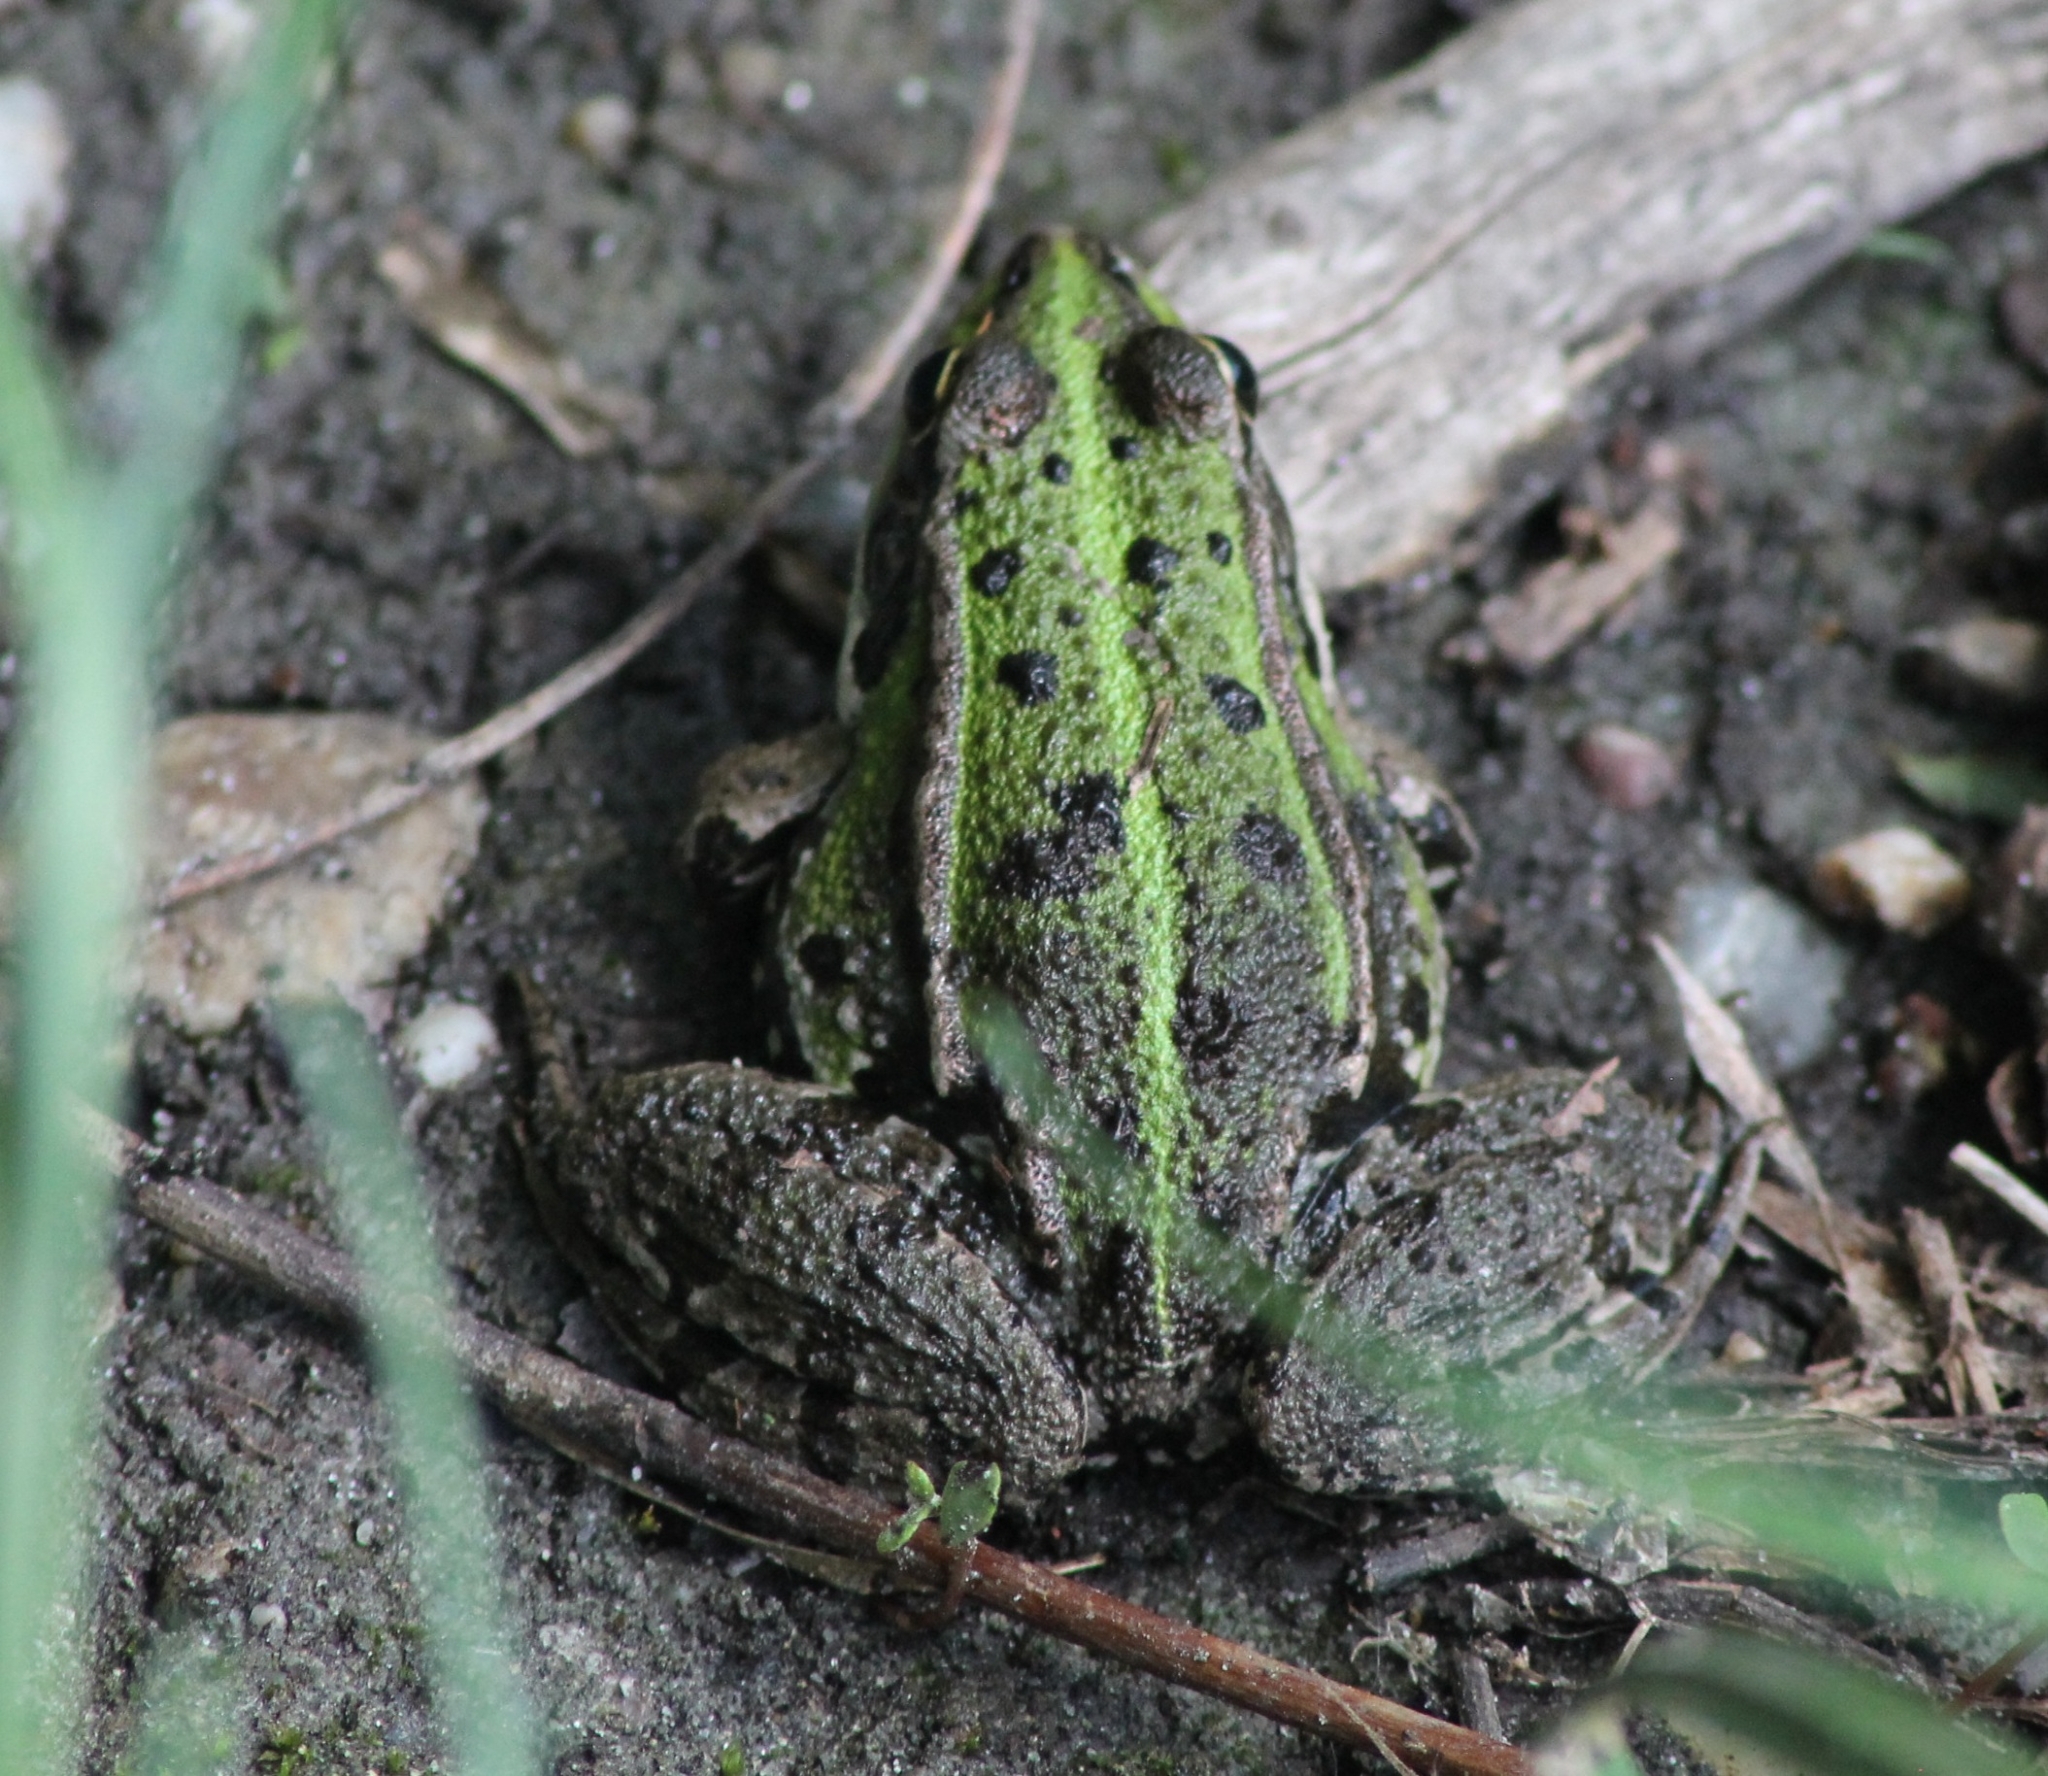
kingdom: Animalia
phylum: Chordata
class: Amphibia
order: Anura
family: Ranidae
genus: Pelophylax
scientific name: Pelophylax
